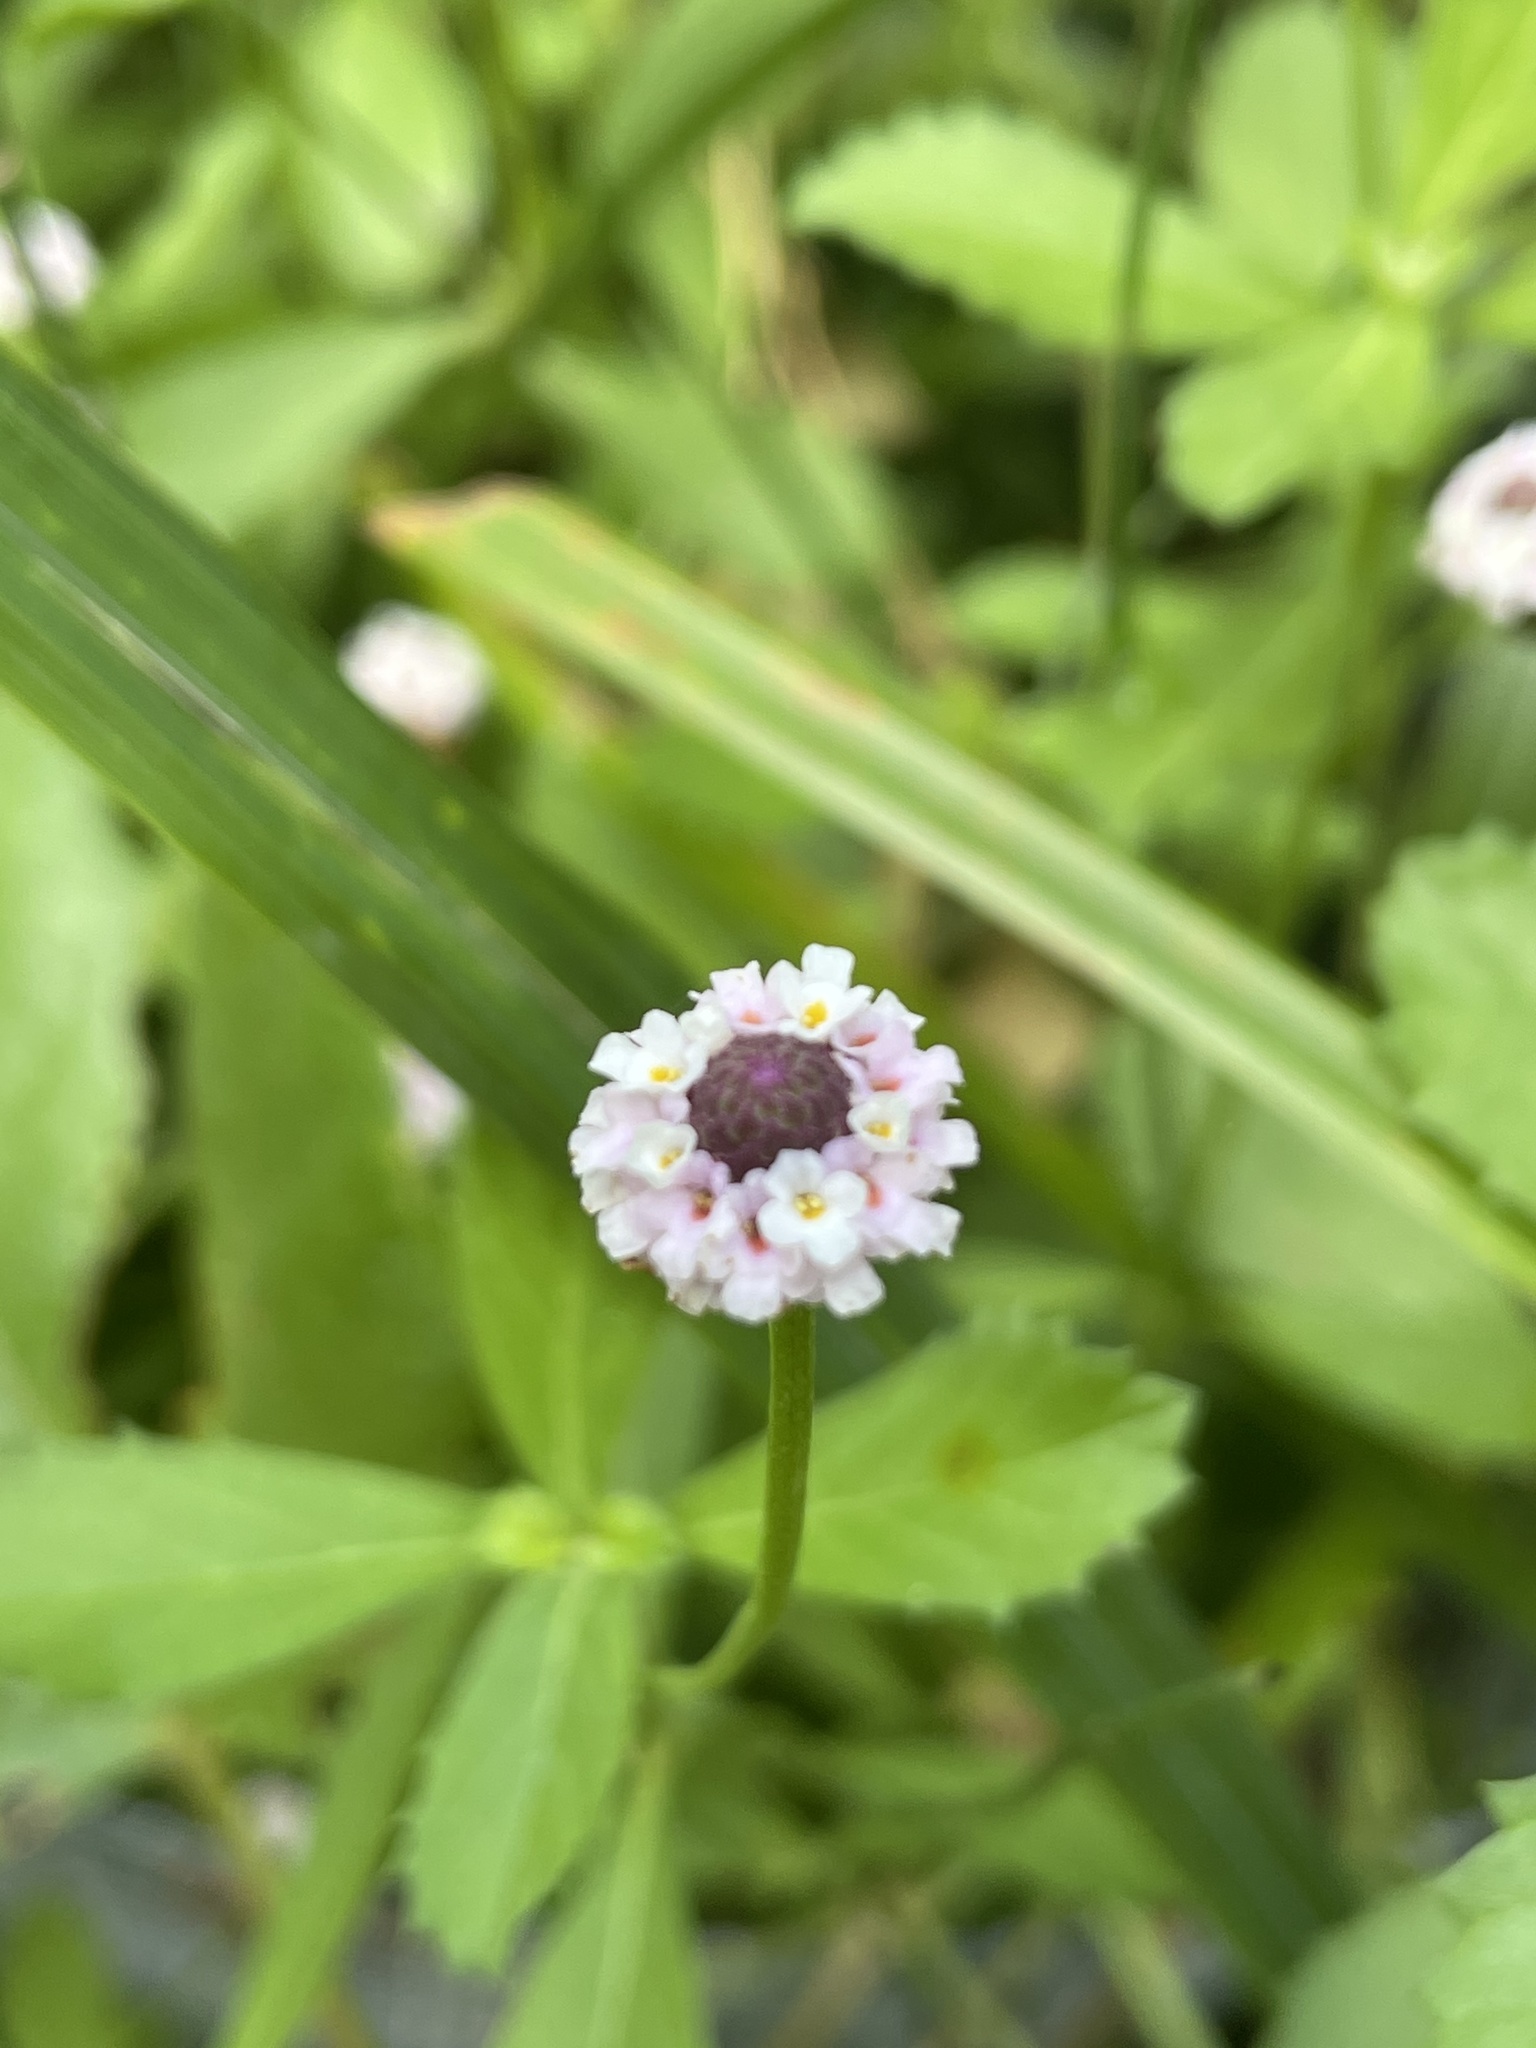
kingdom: Plantae
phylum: Tracheophyta
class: Magnoliopsida
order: Lamiales
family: Verbenaceae
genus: Phyla
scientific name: Phyla nodiflora
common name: Frogfruit
